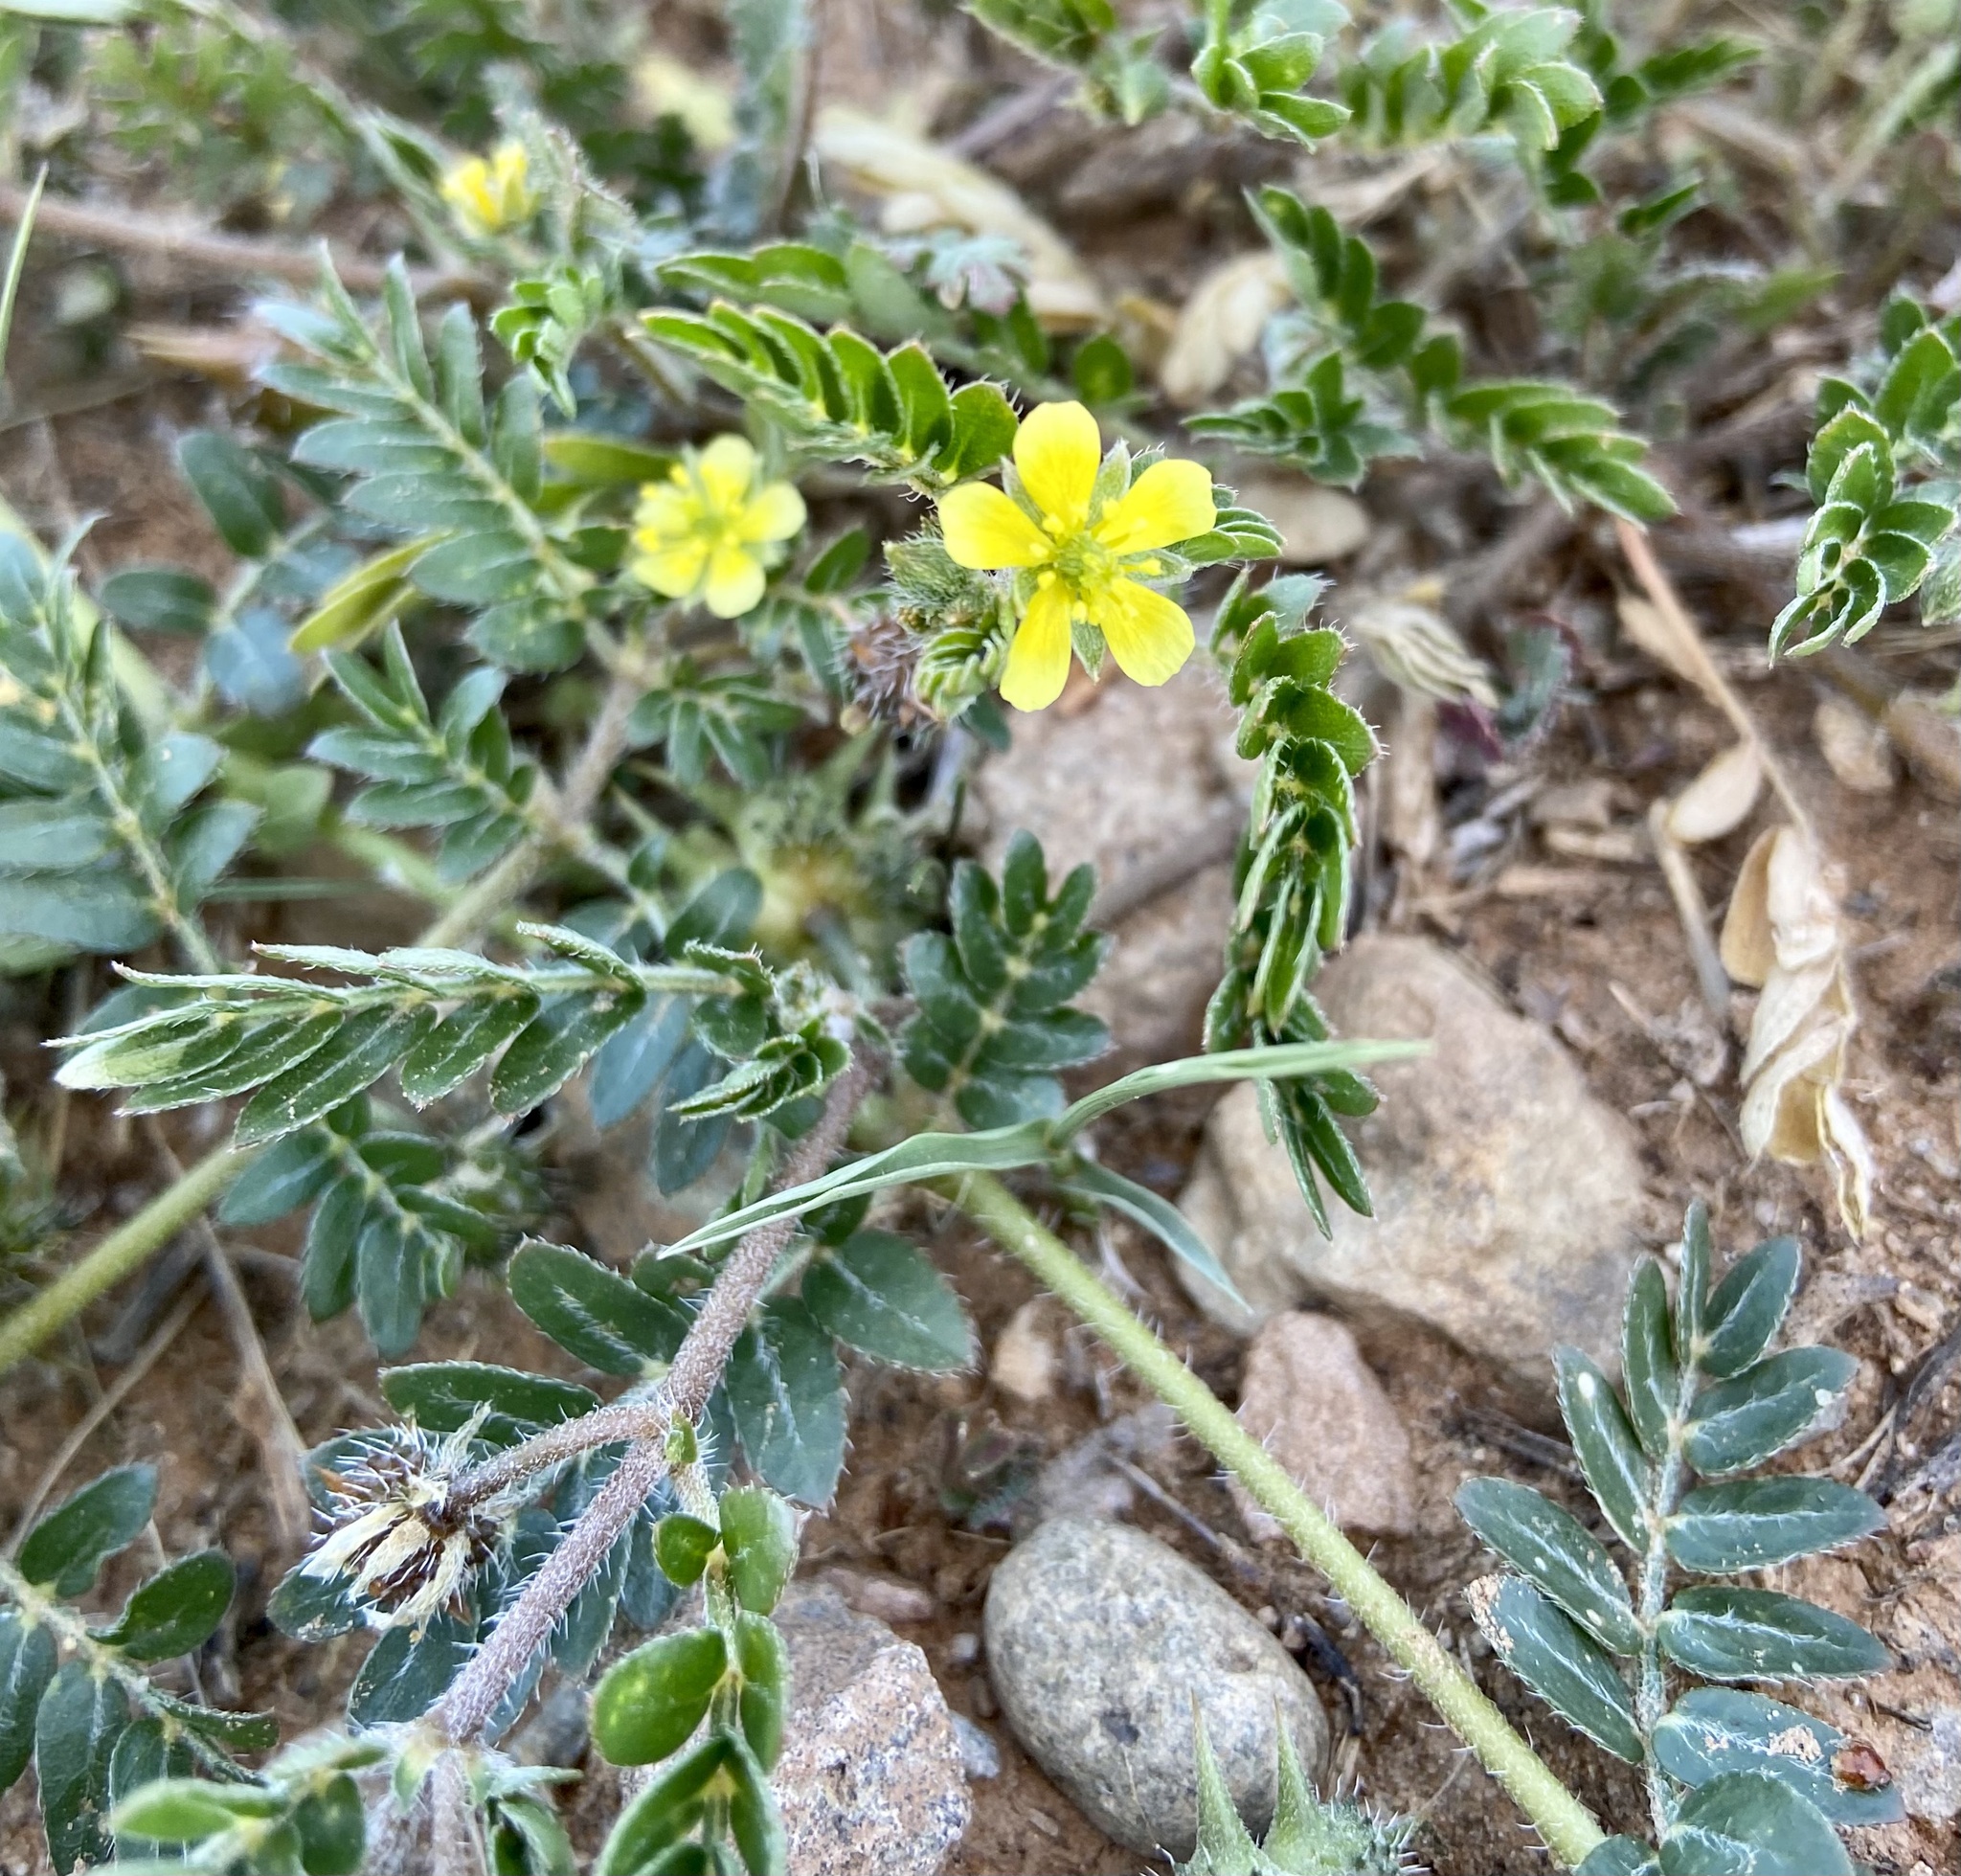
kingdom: Plantae
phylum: Tracheophyta
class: Magnoliopsida
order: Zygophyllales
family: Zygophyllaceae
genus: Tribulus
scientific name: Tribulus terrestris
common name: Puncturevine
